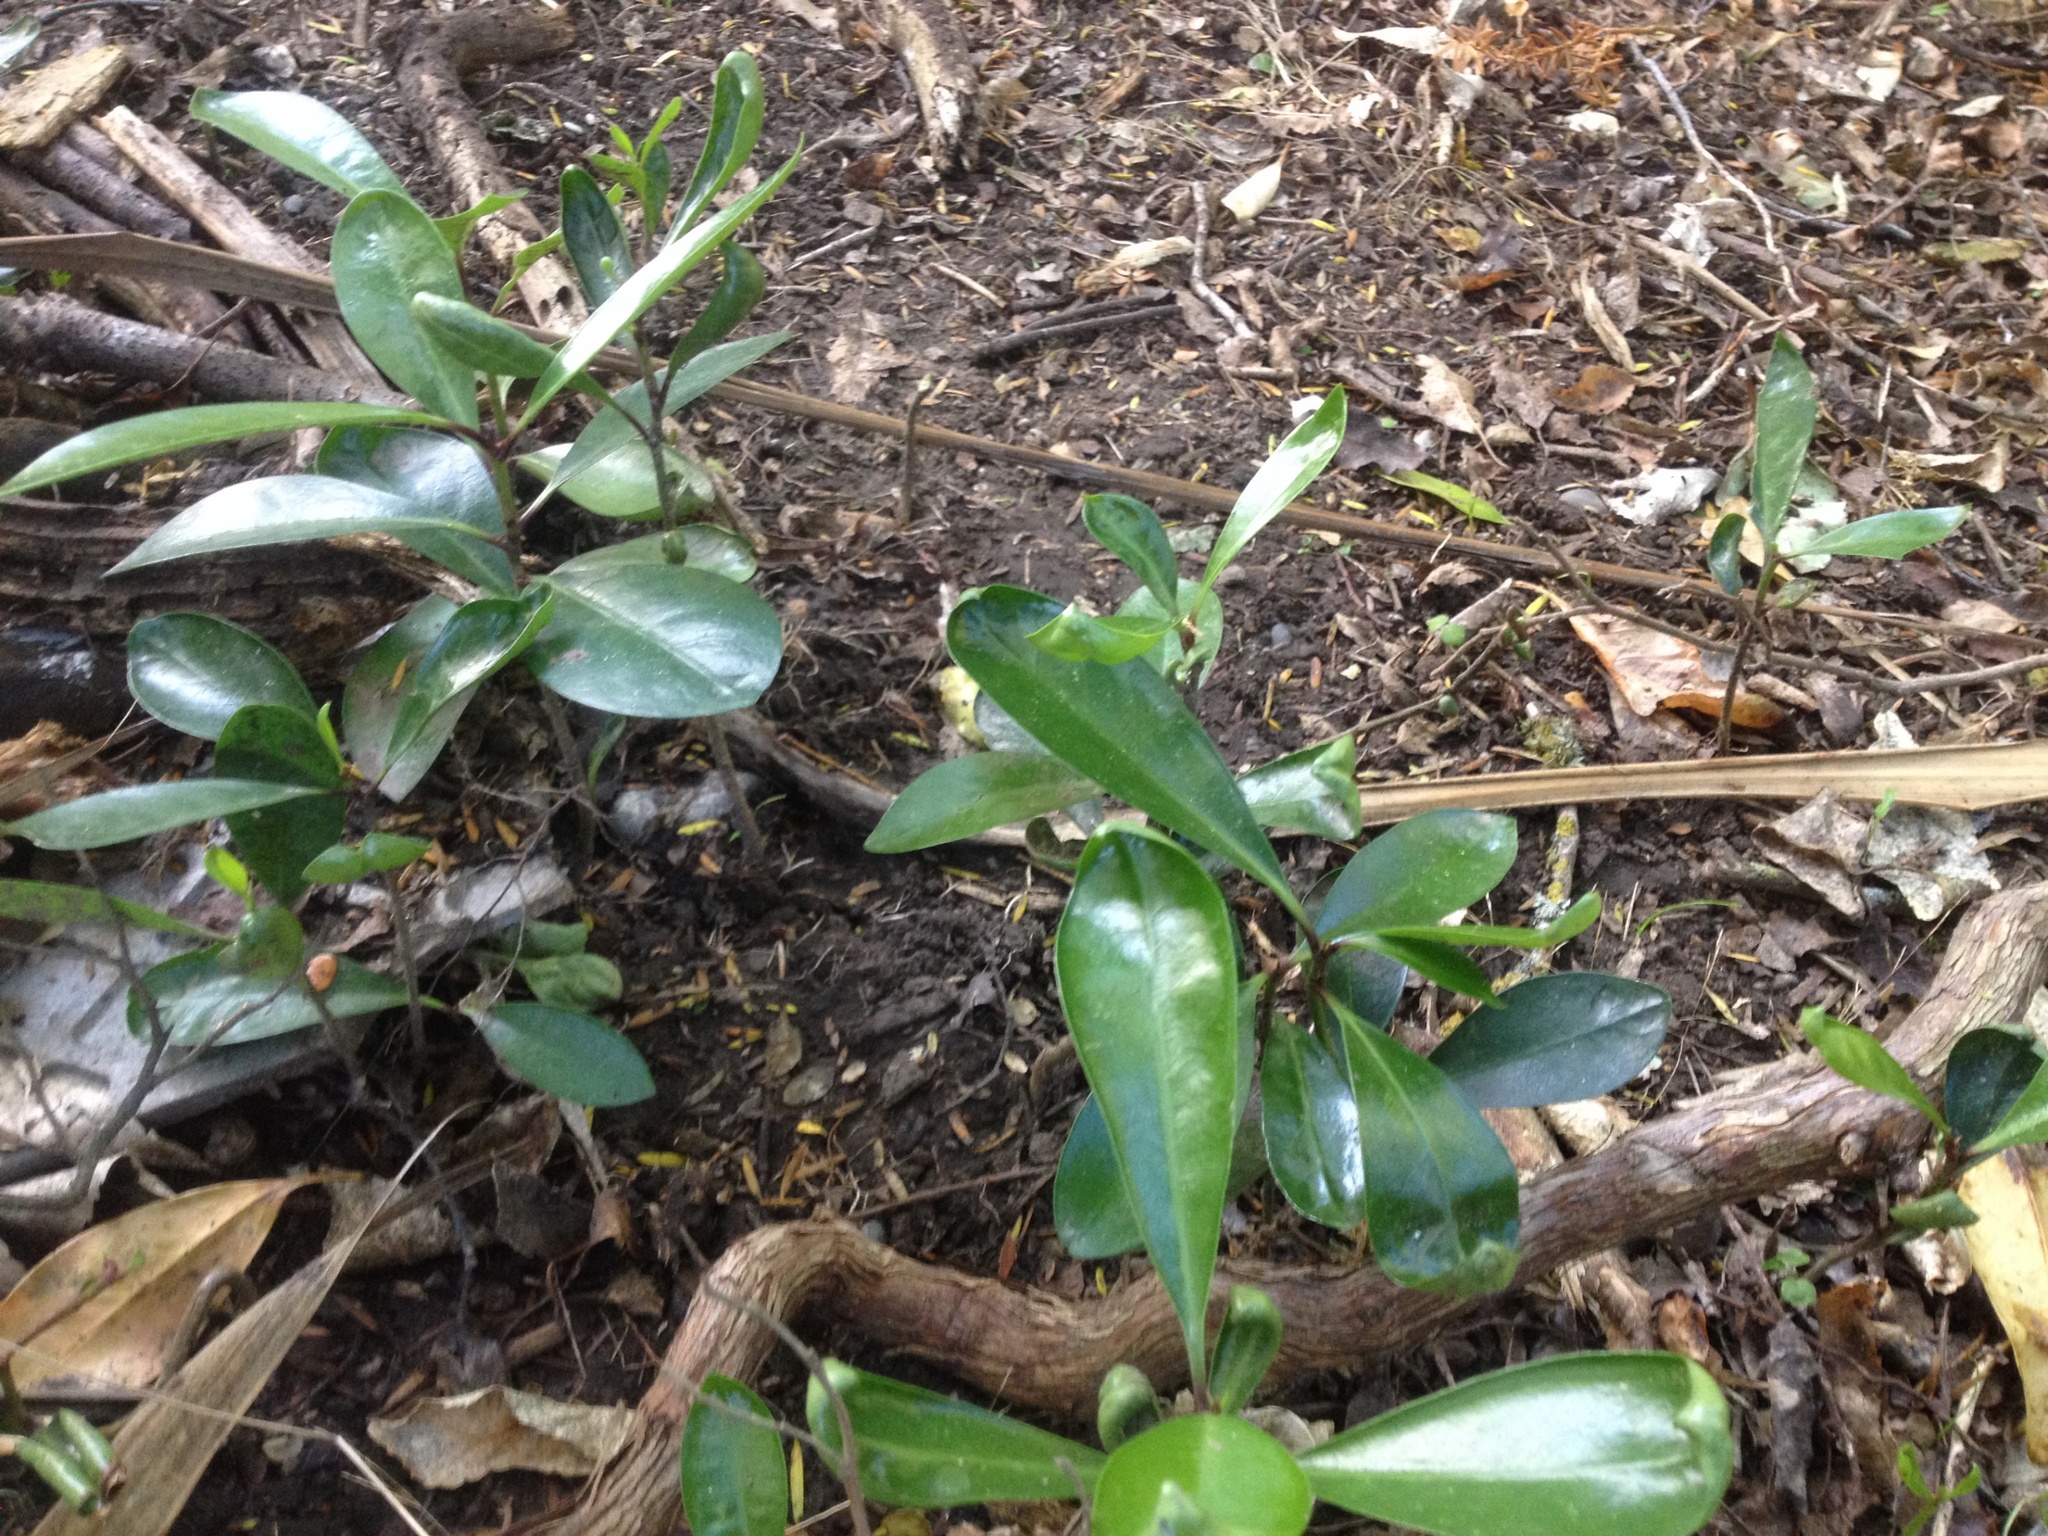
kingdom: Plantae
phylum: Tracheophyta
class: Magnoliopsida
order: Cucurbitales
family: Corynocarpaceae
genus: Corynocarpus
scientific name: Corynocarpus laevigatus
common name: New zealand laurel
